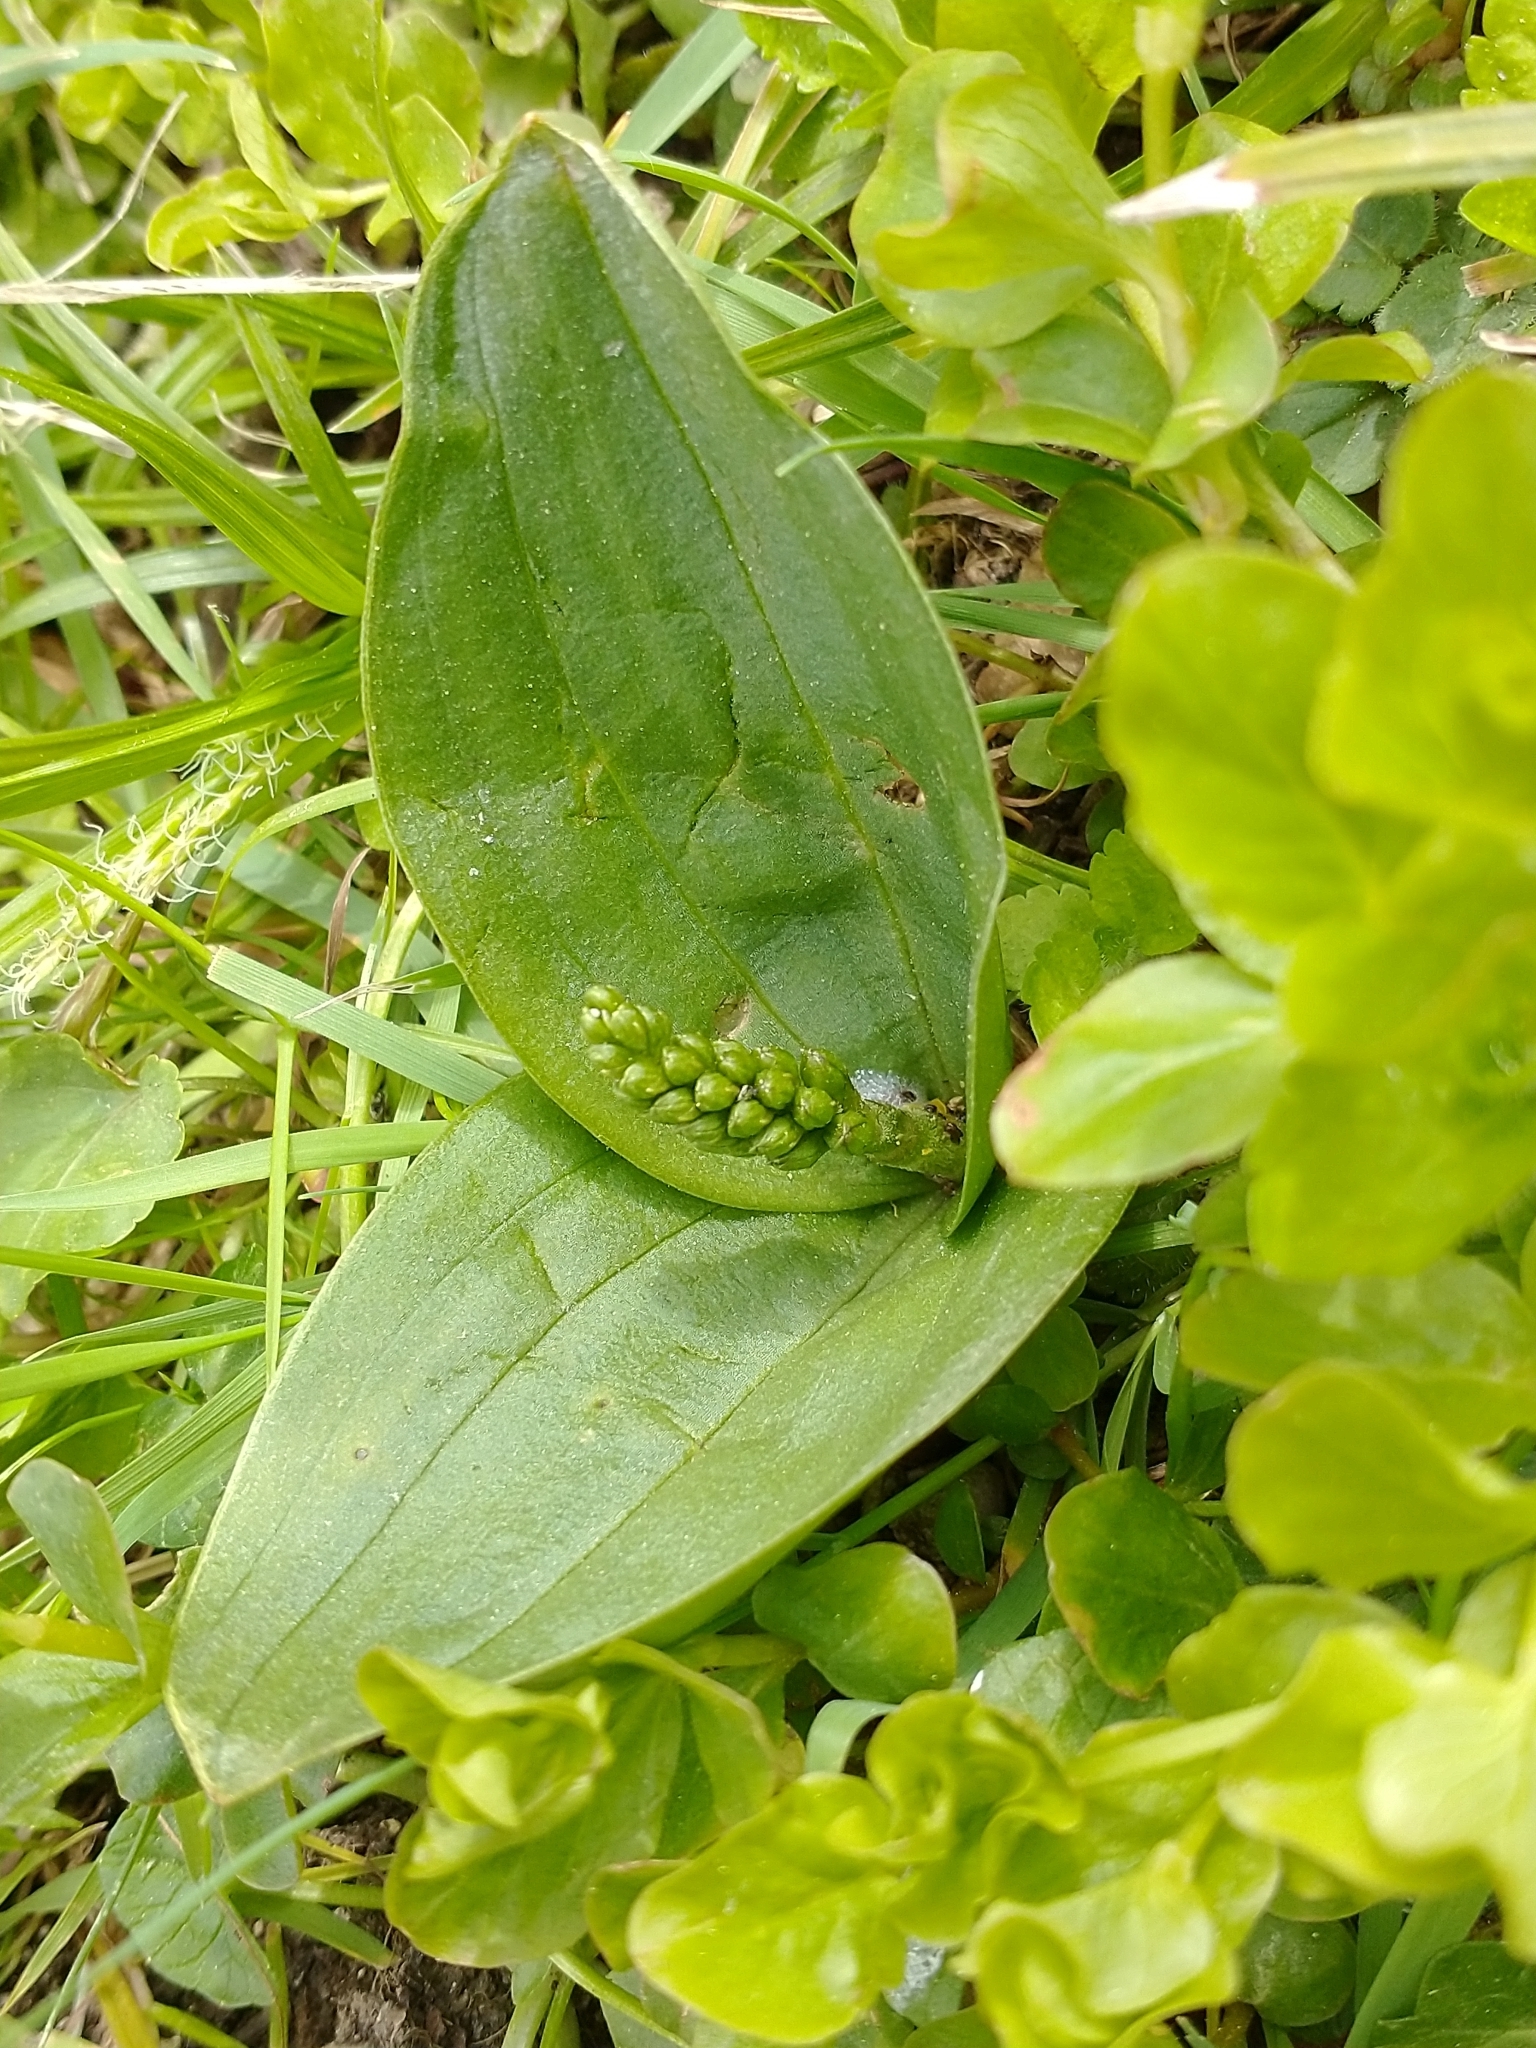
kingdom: Plantae
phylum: Tracheophyta
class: Liliopsida
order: Asparagales
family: Orchidaceae
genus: Neottia
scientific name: Neottia ovata
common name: Common twayblade
